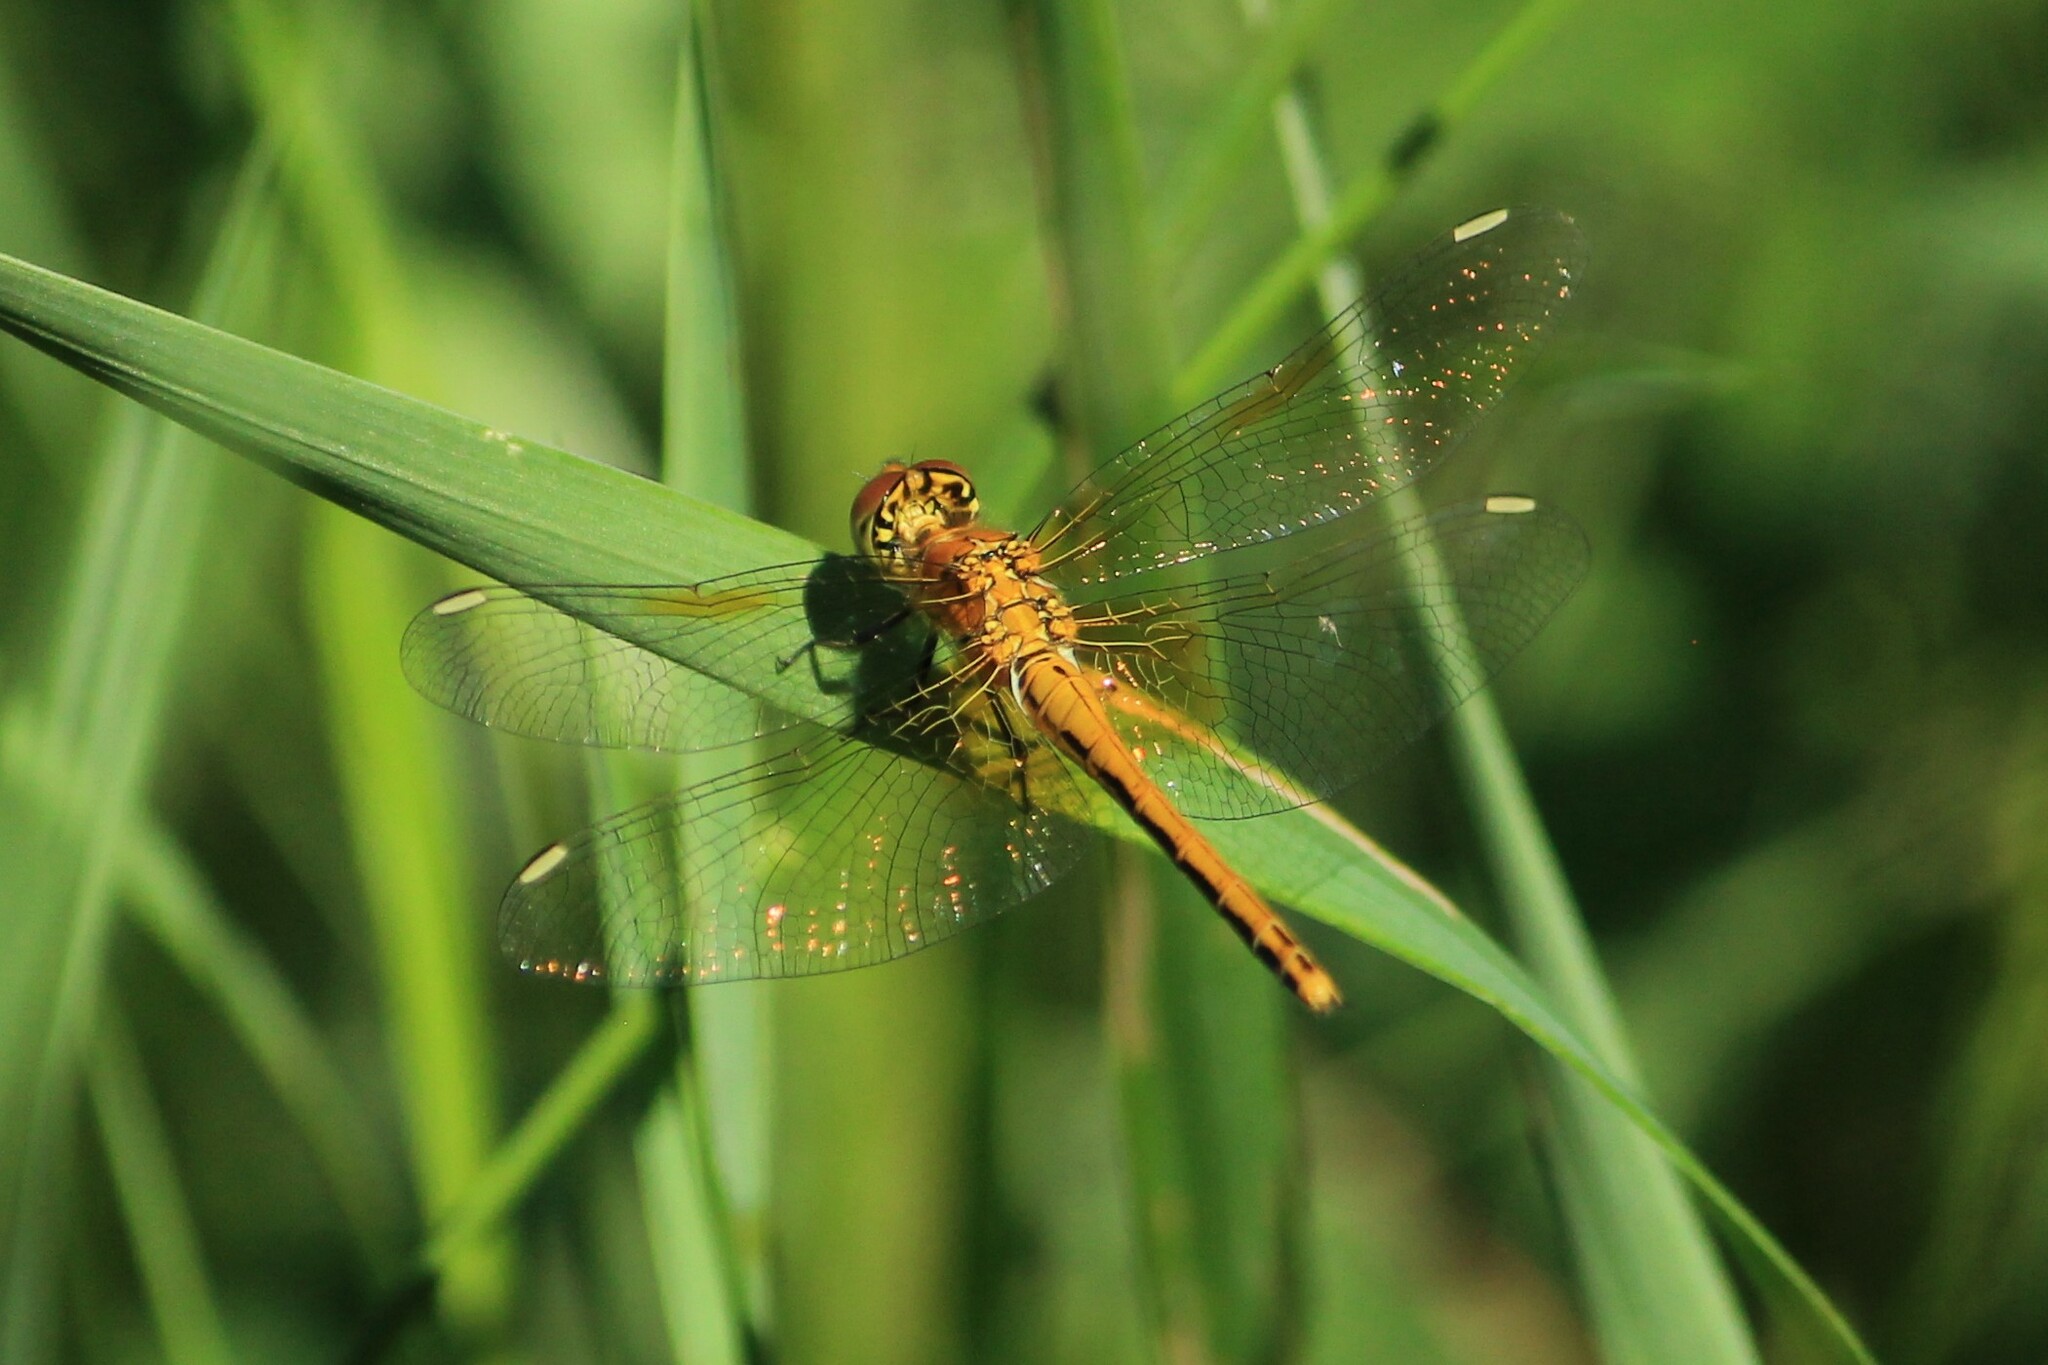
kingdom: Animalia
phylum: Arthropoda
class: Insecta
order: Odonata
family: Libellulidae
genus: Sympetrum
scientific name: Sympetrum flaveolum
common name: Yellow-winged darter
